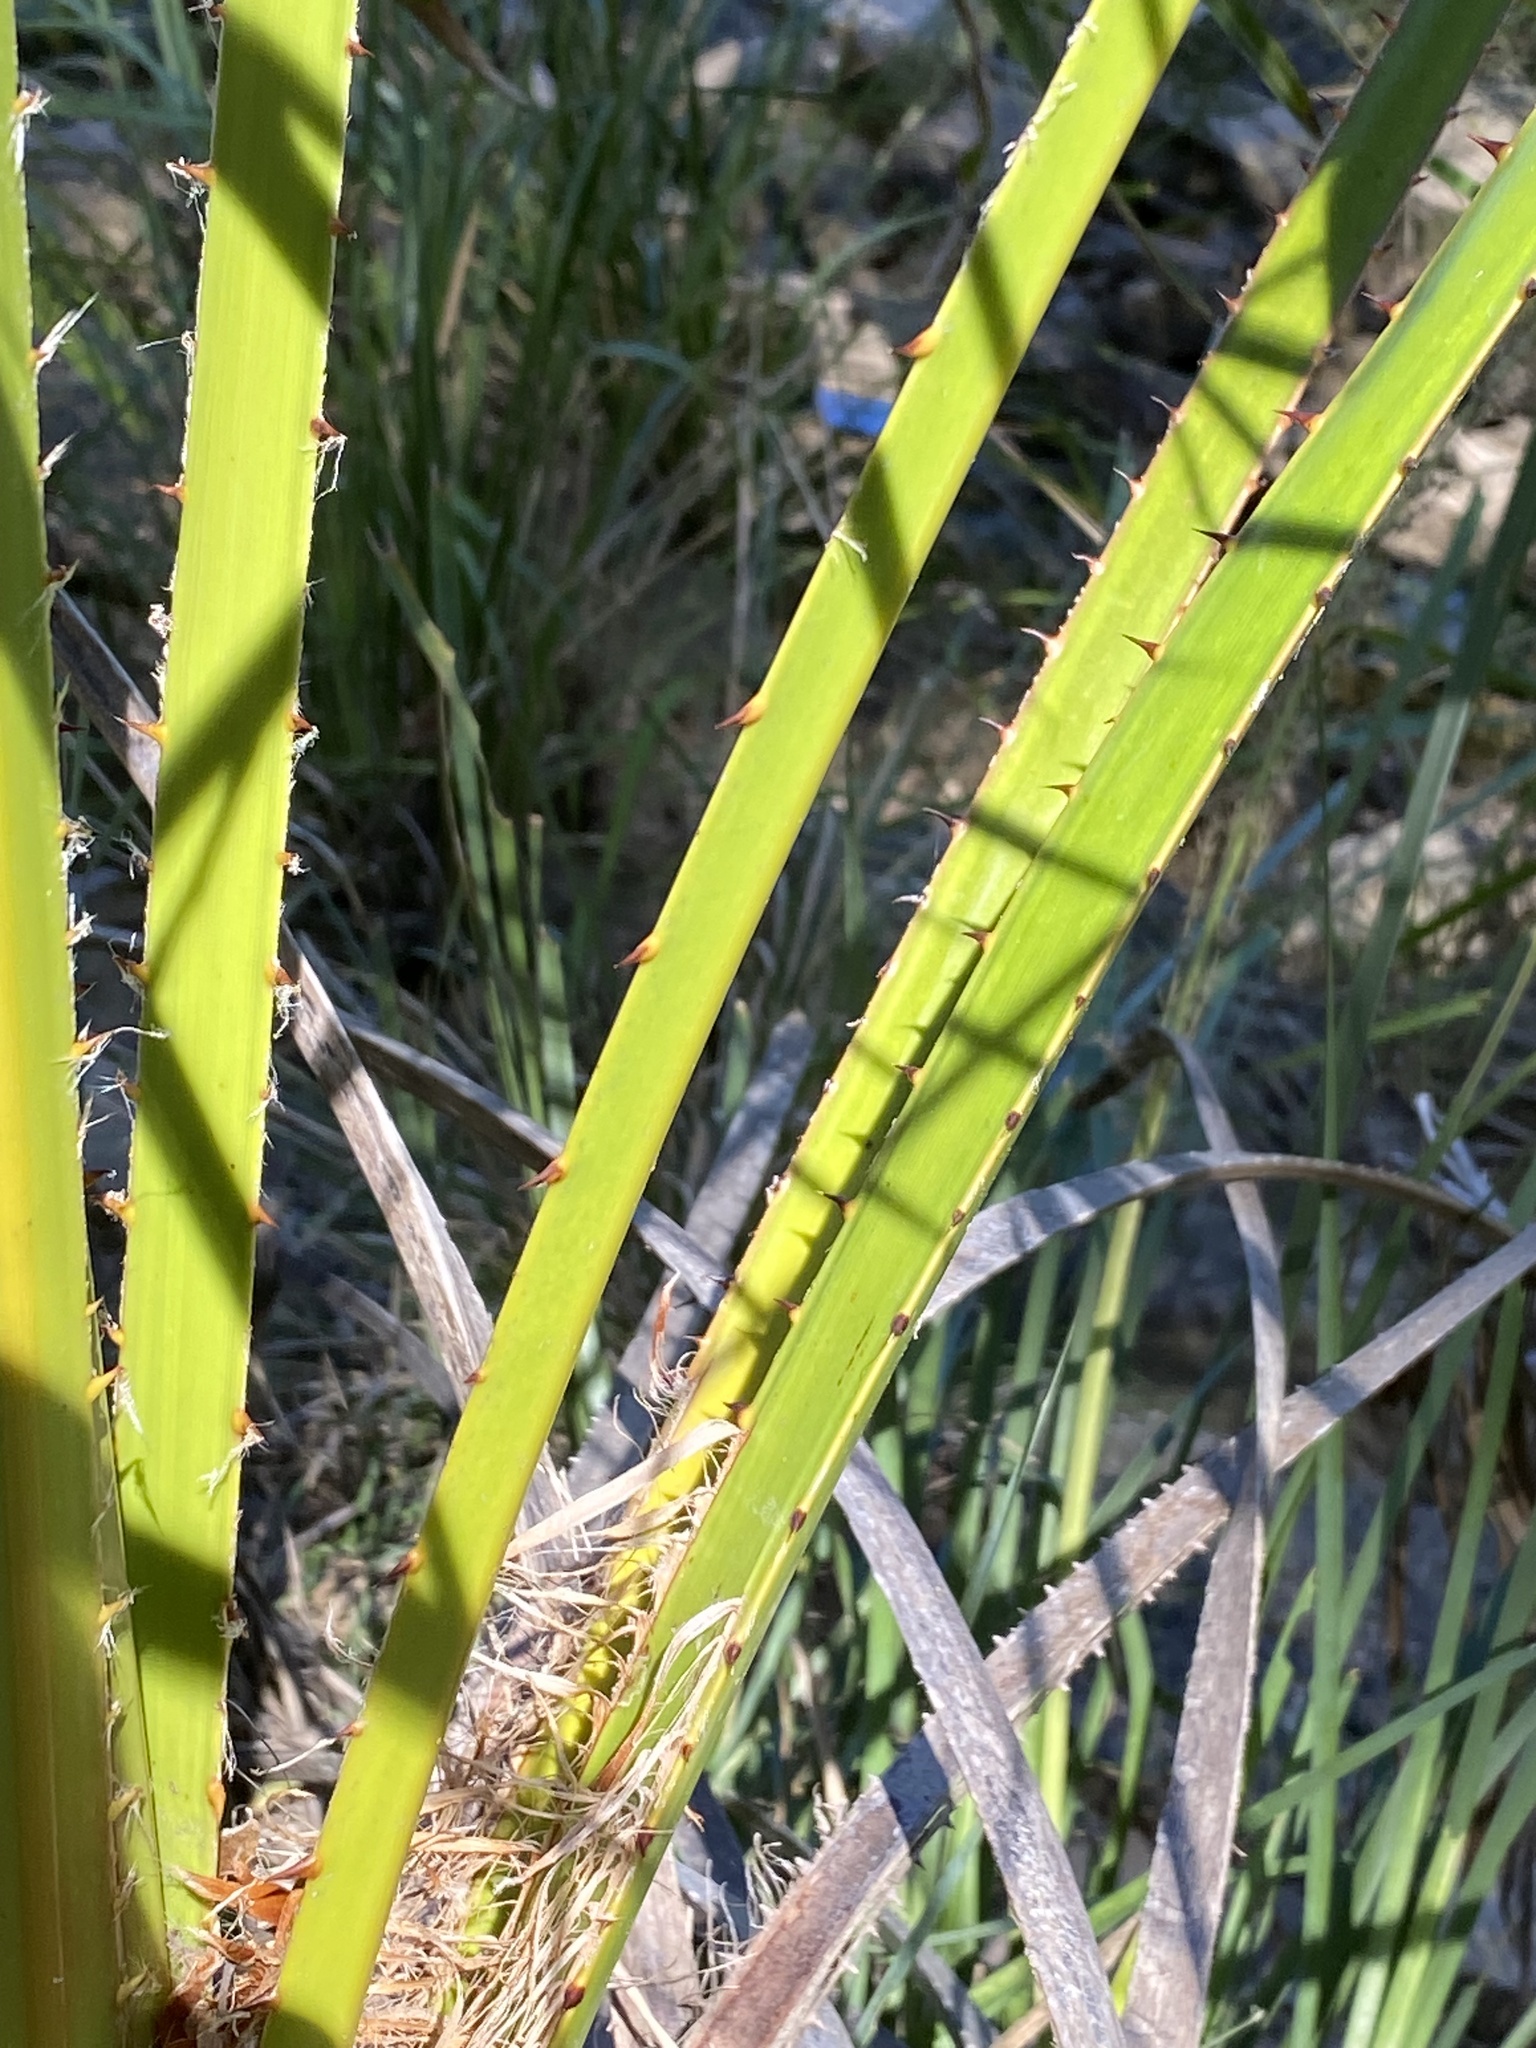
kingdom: Plantae
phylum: Tracheophyta
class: Liliopsida
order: Arecales
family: Arecaceae
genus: Livistona
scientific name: Livistona nitida
